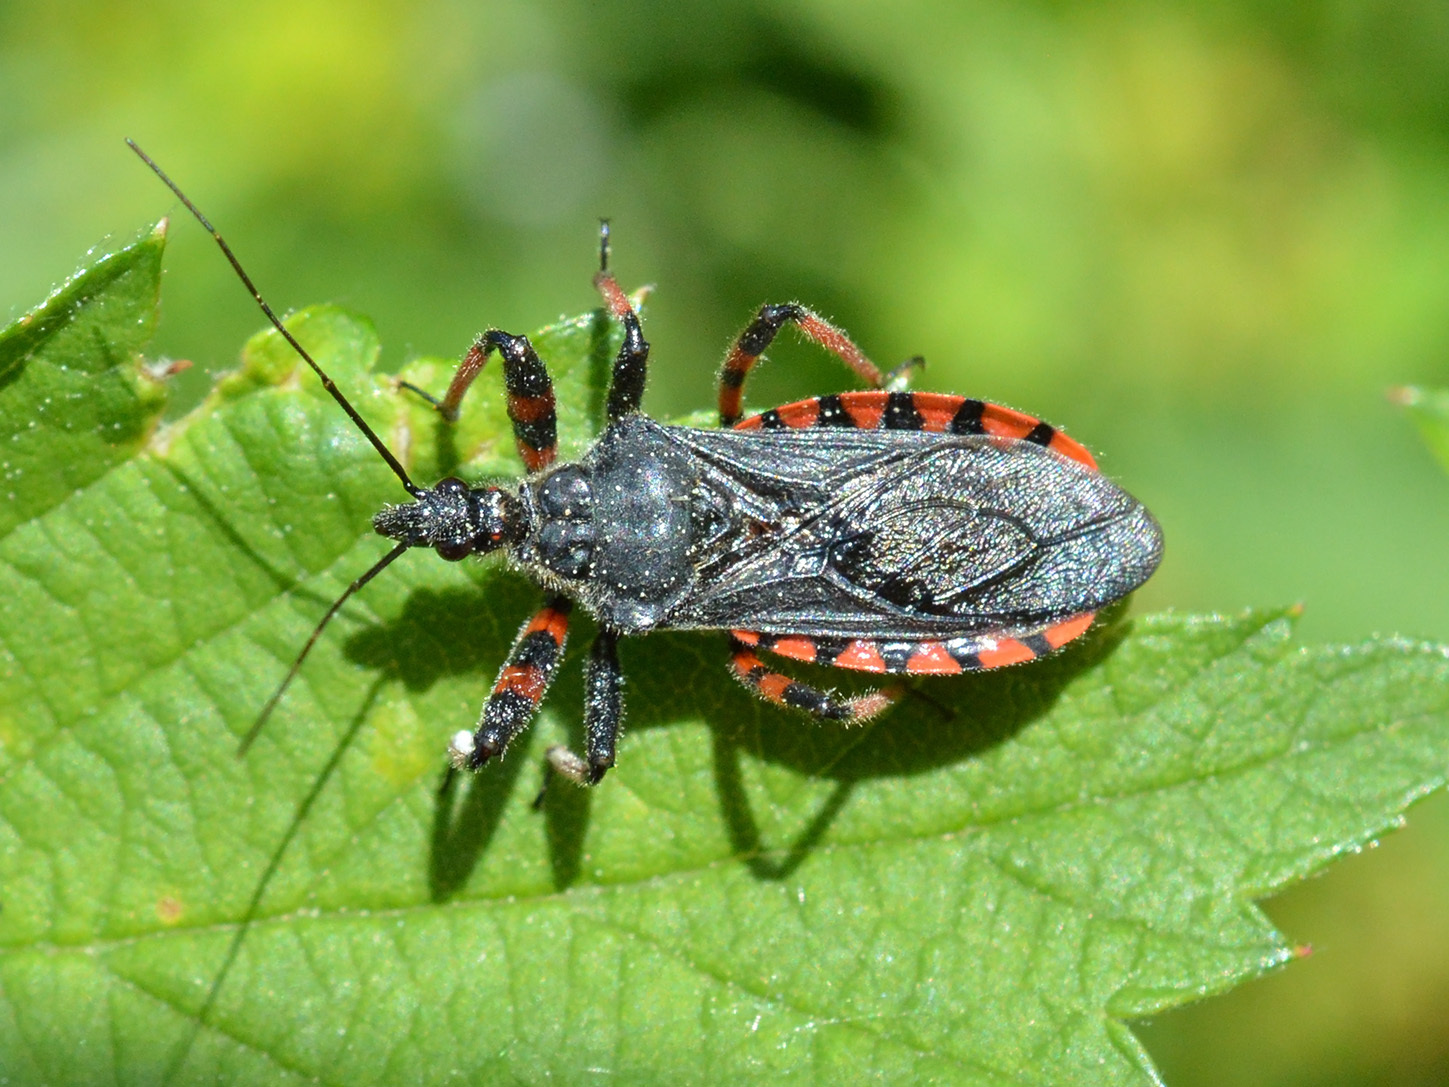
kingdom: Animalia
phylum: Arthropoda
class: Insecta
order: Hemiptera
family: Reduviidae
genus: Rhynocoris
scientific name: Rhynocoris annulatus
